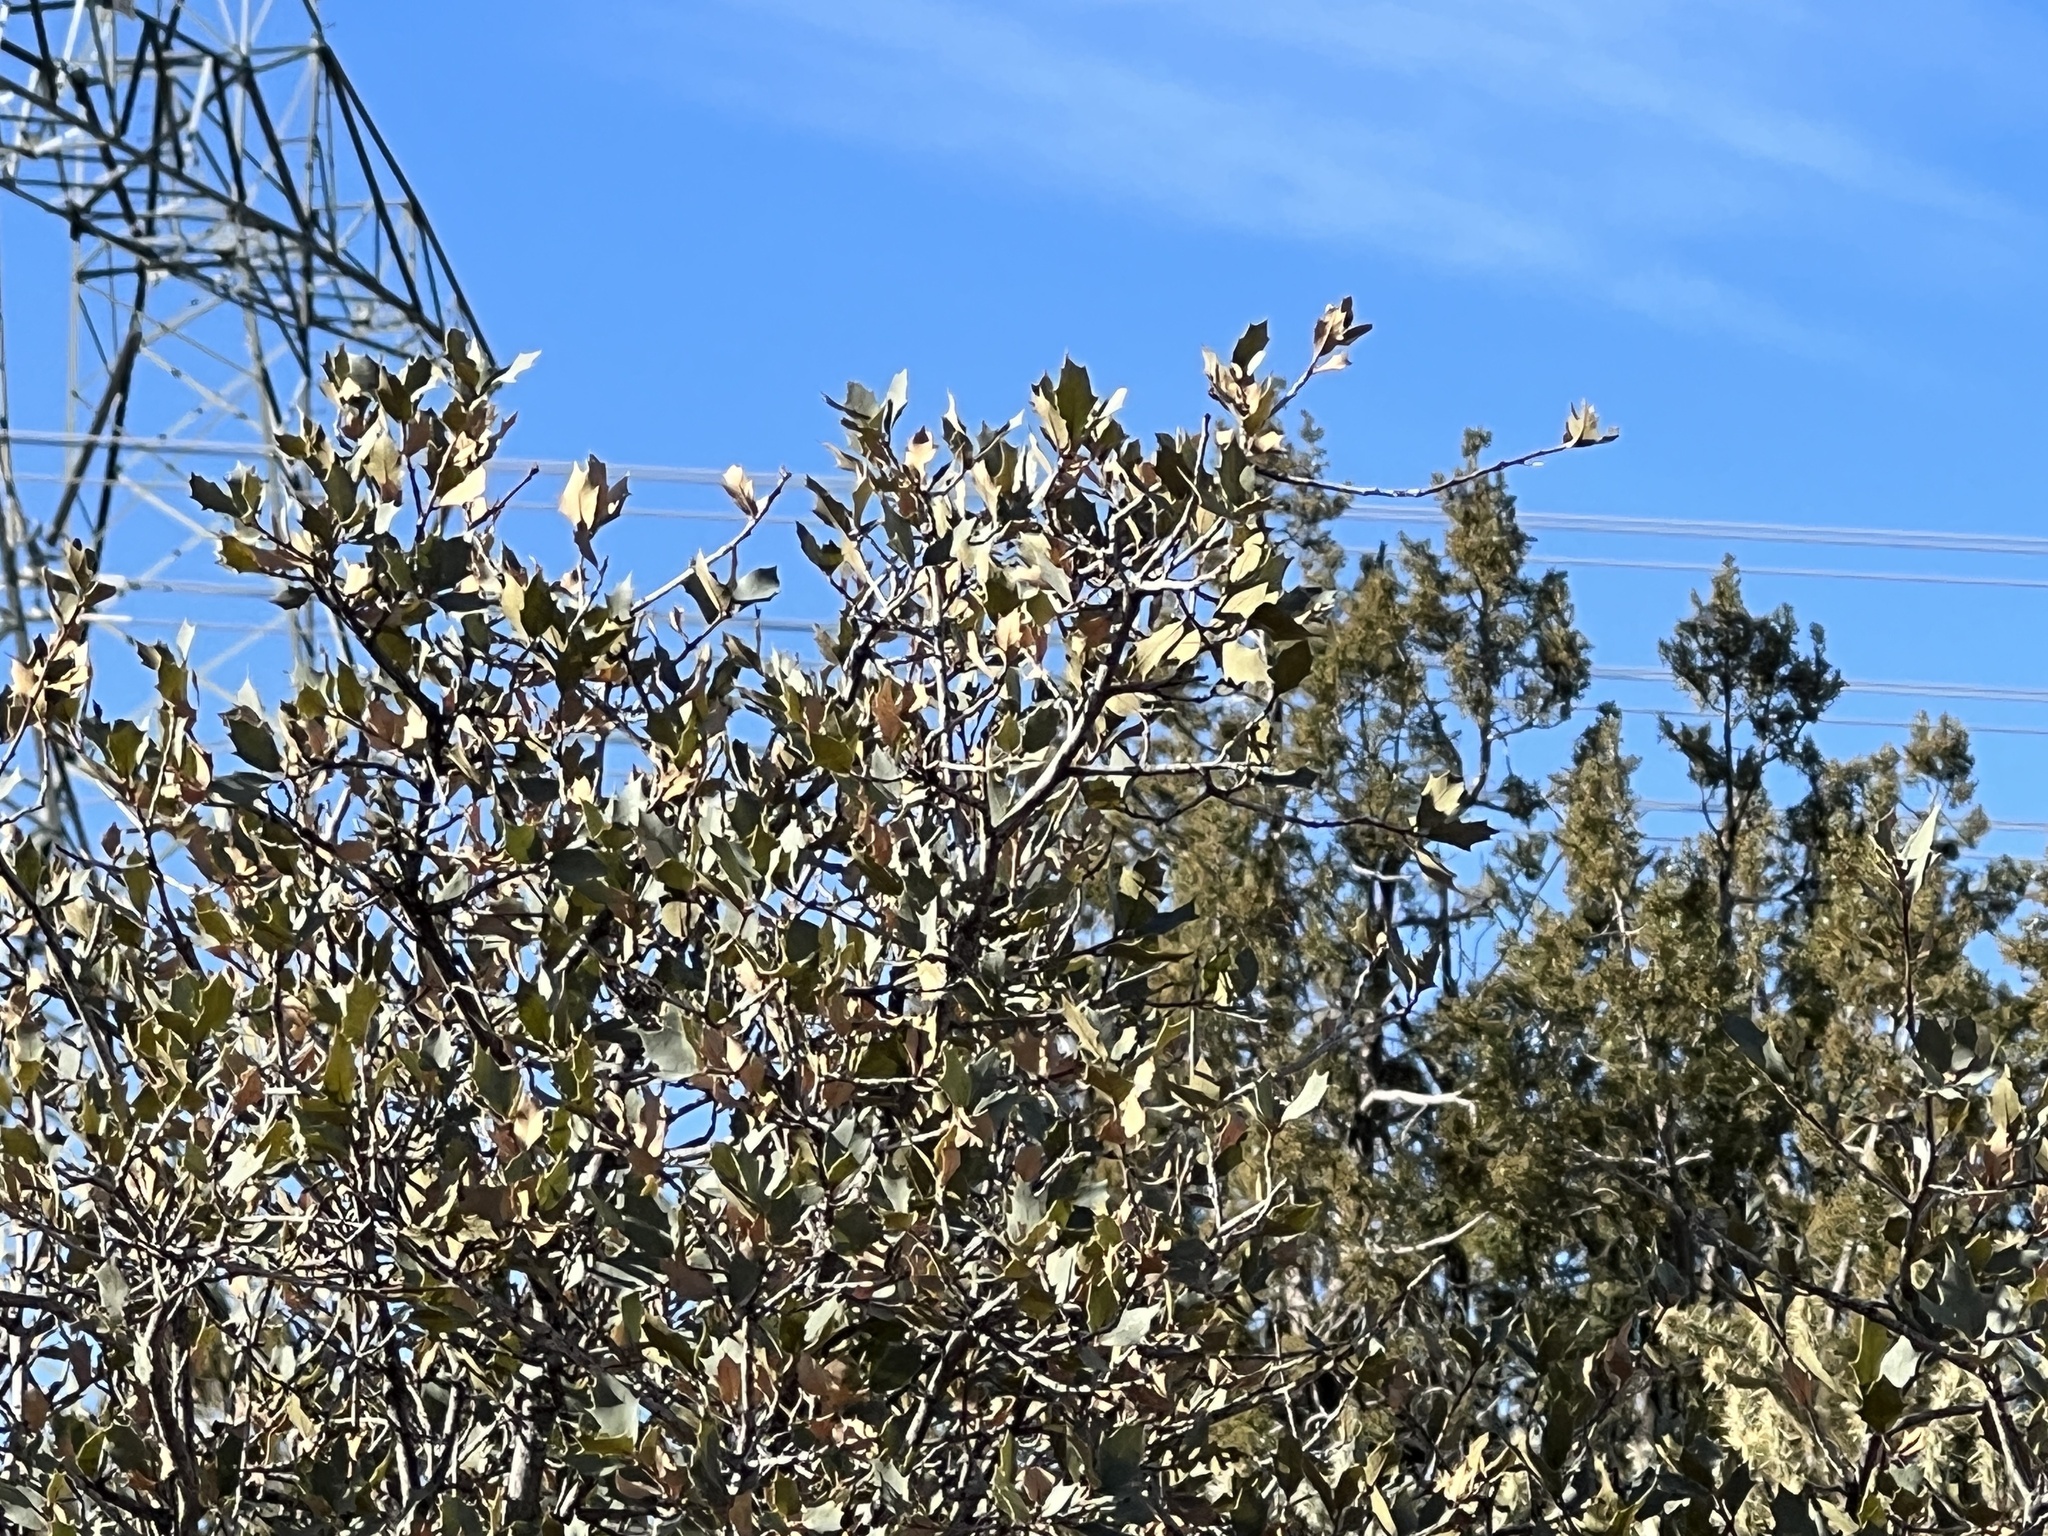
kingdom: Plantae
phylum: Tracheophyta
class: Magnoliopsida
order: Fagales
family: Fagaceae
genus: Quercus
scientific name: Quercus turbinella
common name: Sonoran scrub oak
